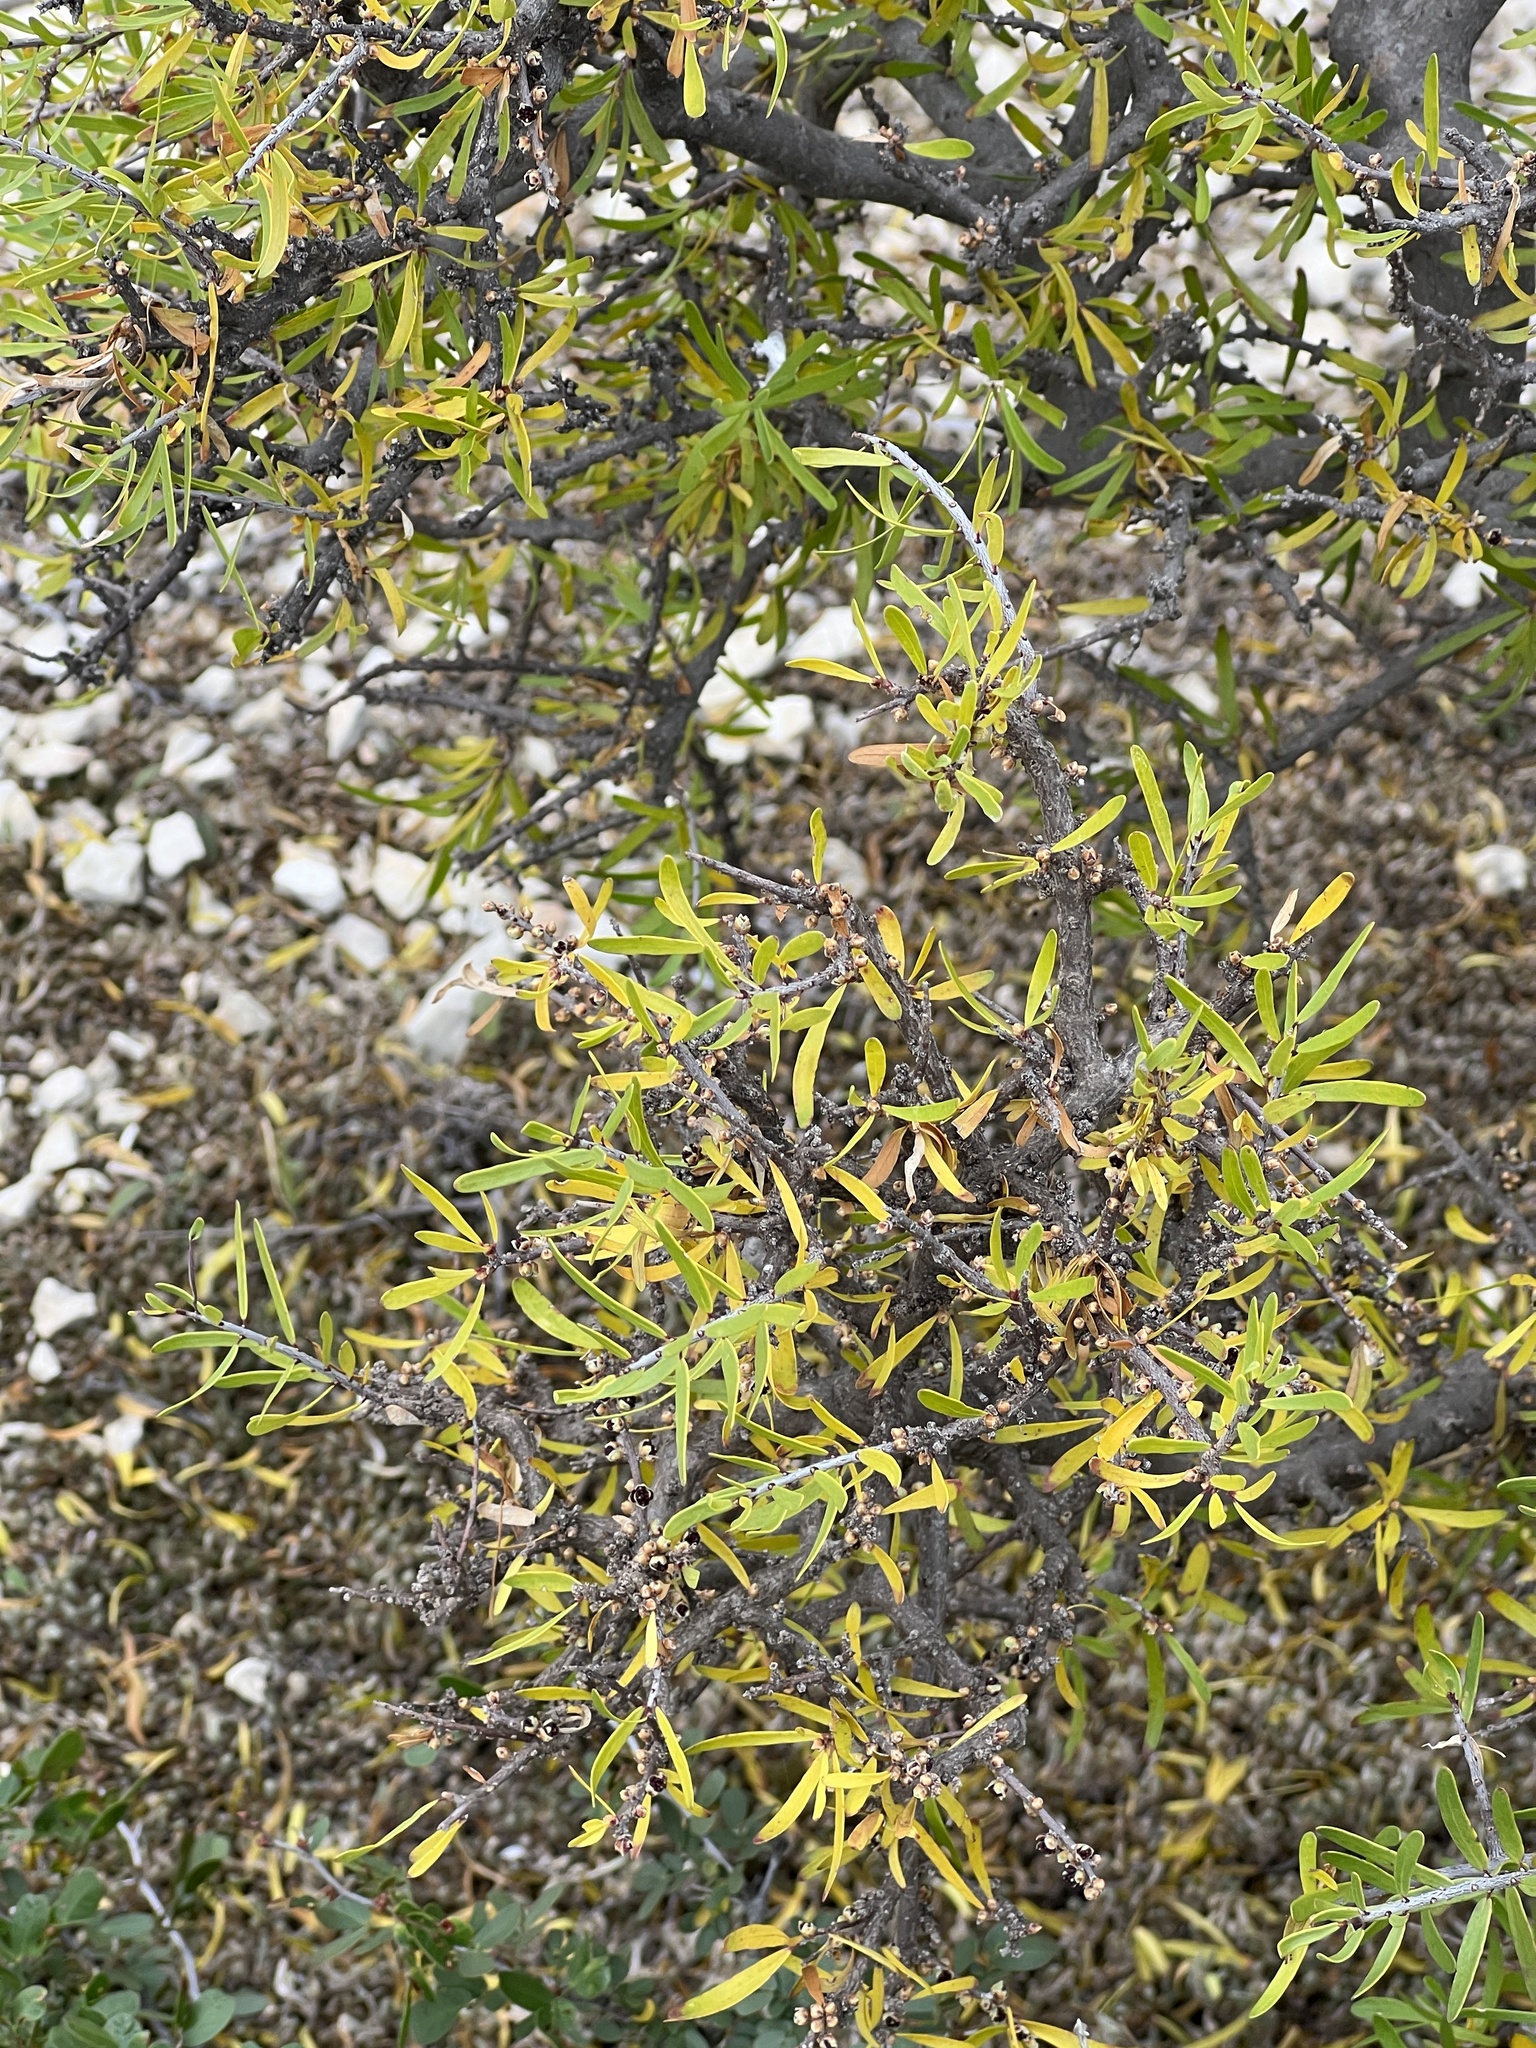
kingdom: Plantae
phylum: Tracheophyta
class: Magnoliopsida
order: Lamiales
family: Oleaceae
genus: Forestiera
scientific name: Forestiera angustifolia
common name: Elbowbush
